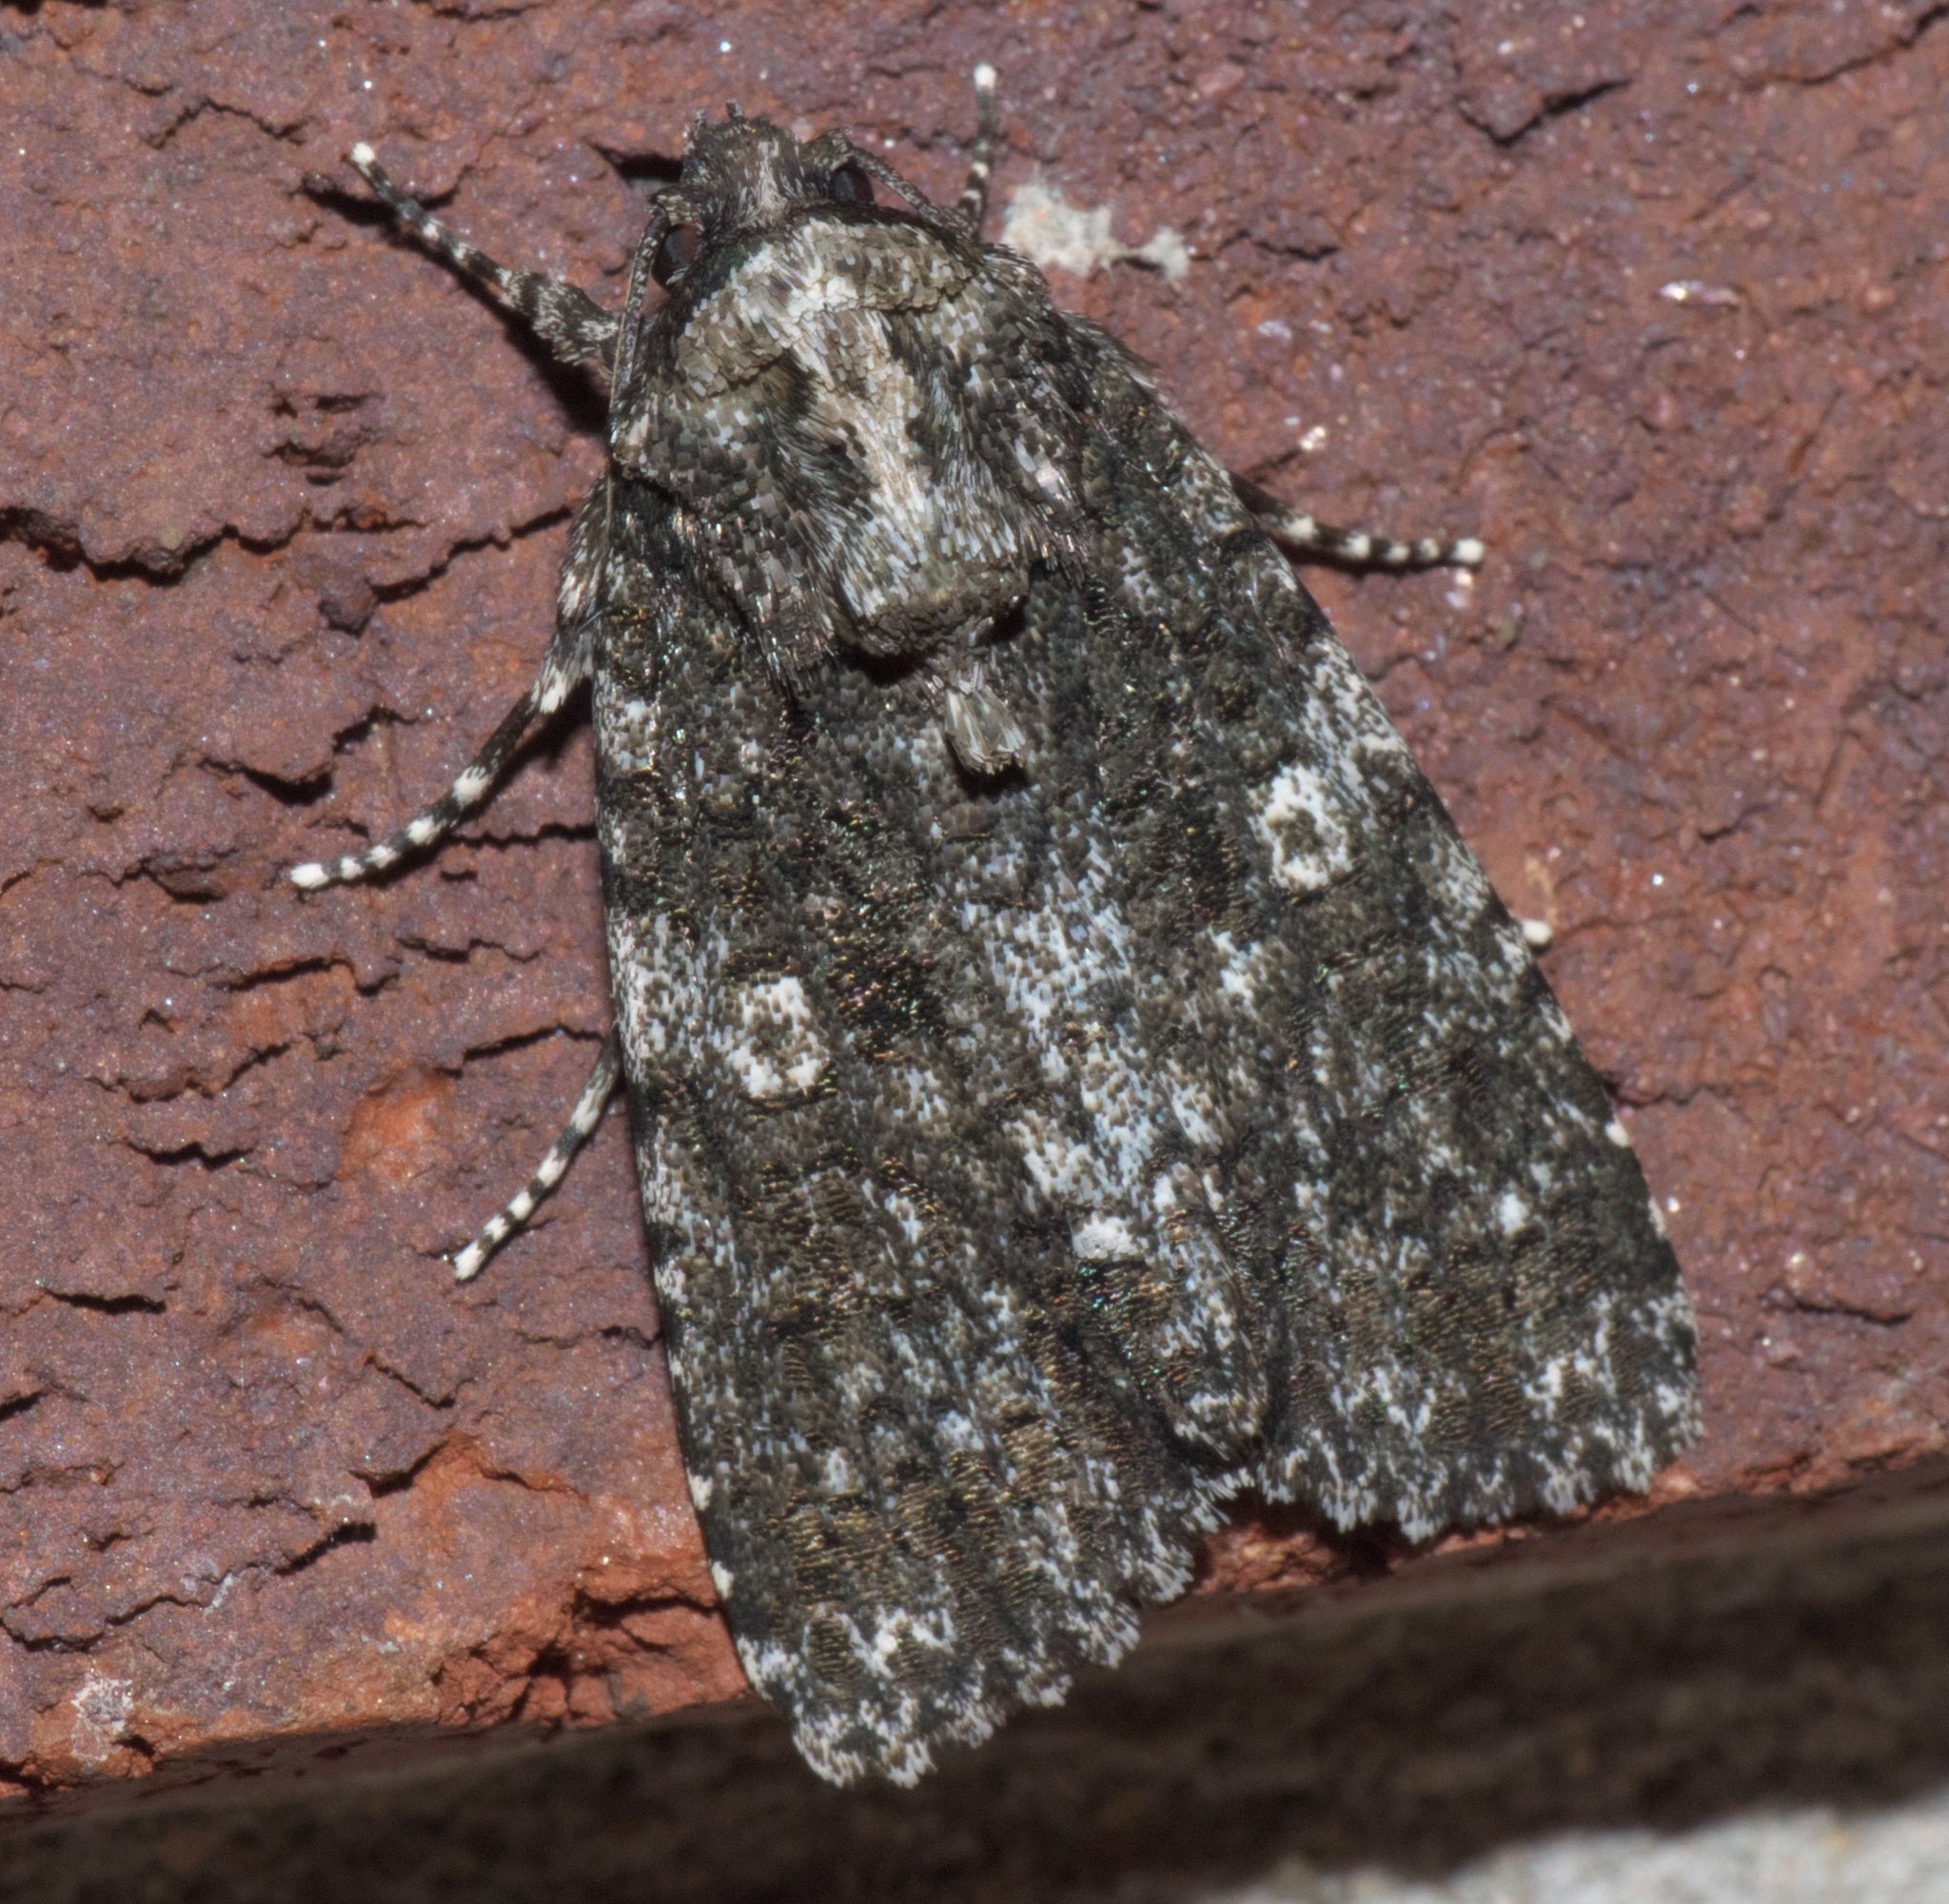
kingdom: Animalia
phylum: Arthropoda
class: Insecta
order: Lepidoptera
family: Noctuidae
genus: Acronicta
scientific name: Acronicta afflicta
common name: Afflicted dagger moth
